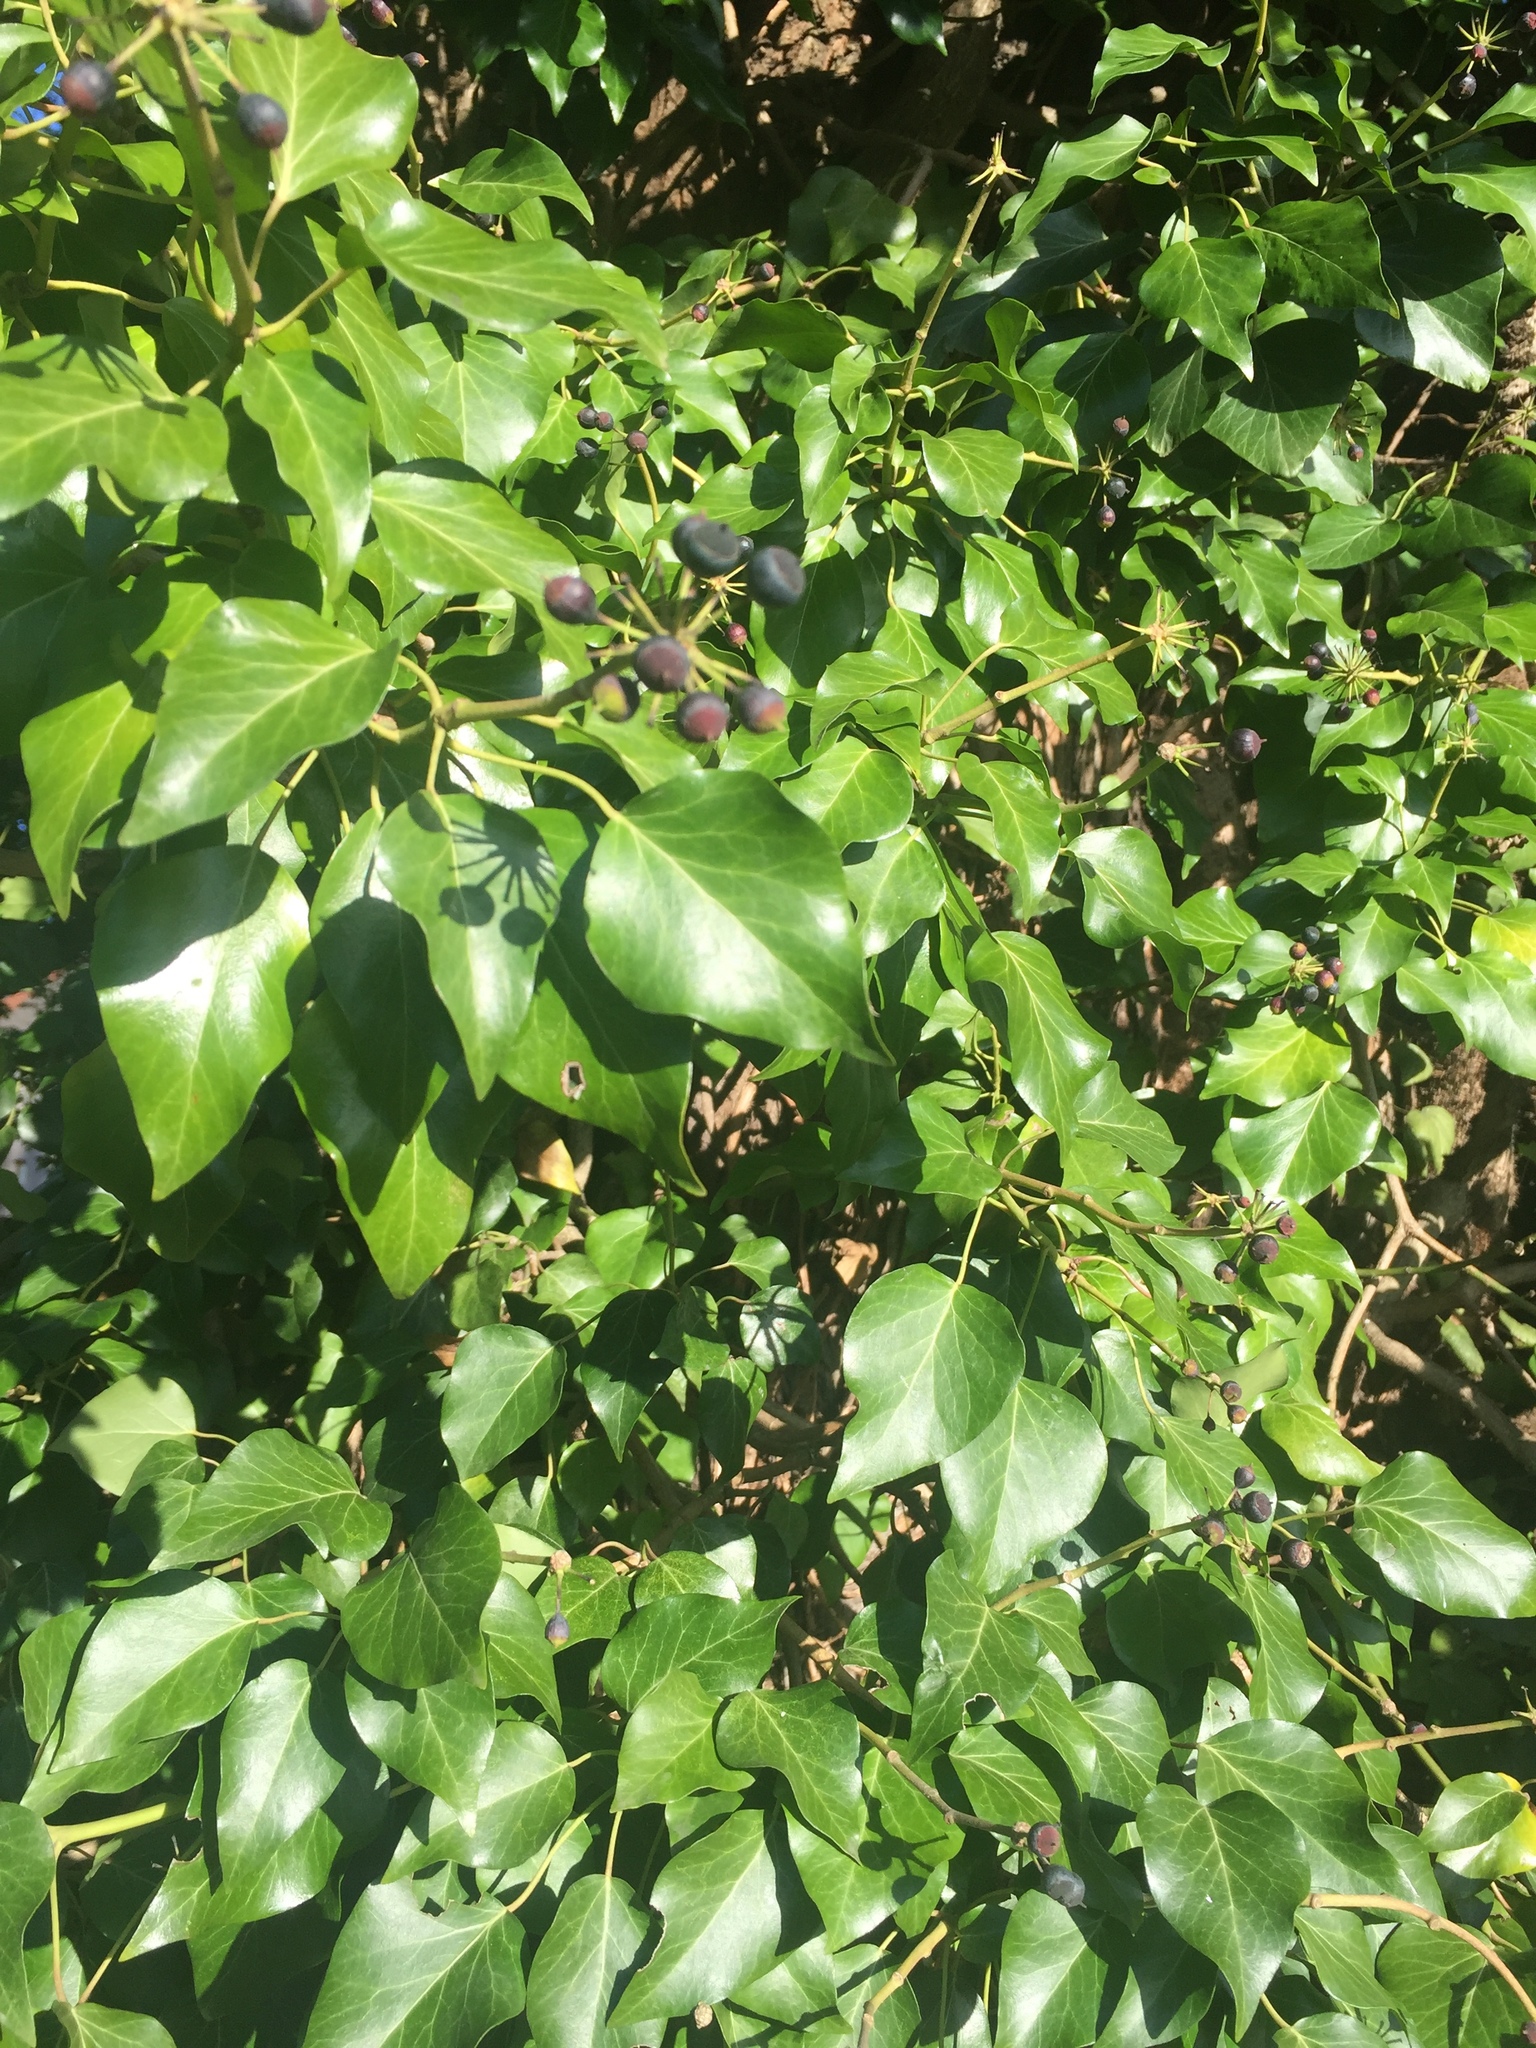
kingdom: Plantae
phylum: Tracheophyta
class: Magnoliopsida
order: Apiales
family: Araliaceae
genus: Hedera
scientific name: Hedera helix
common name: Ivy
